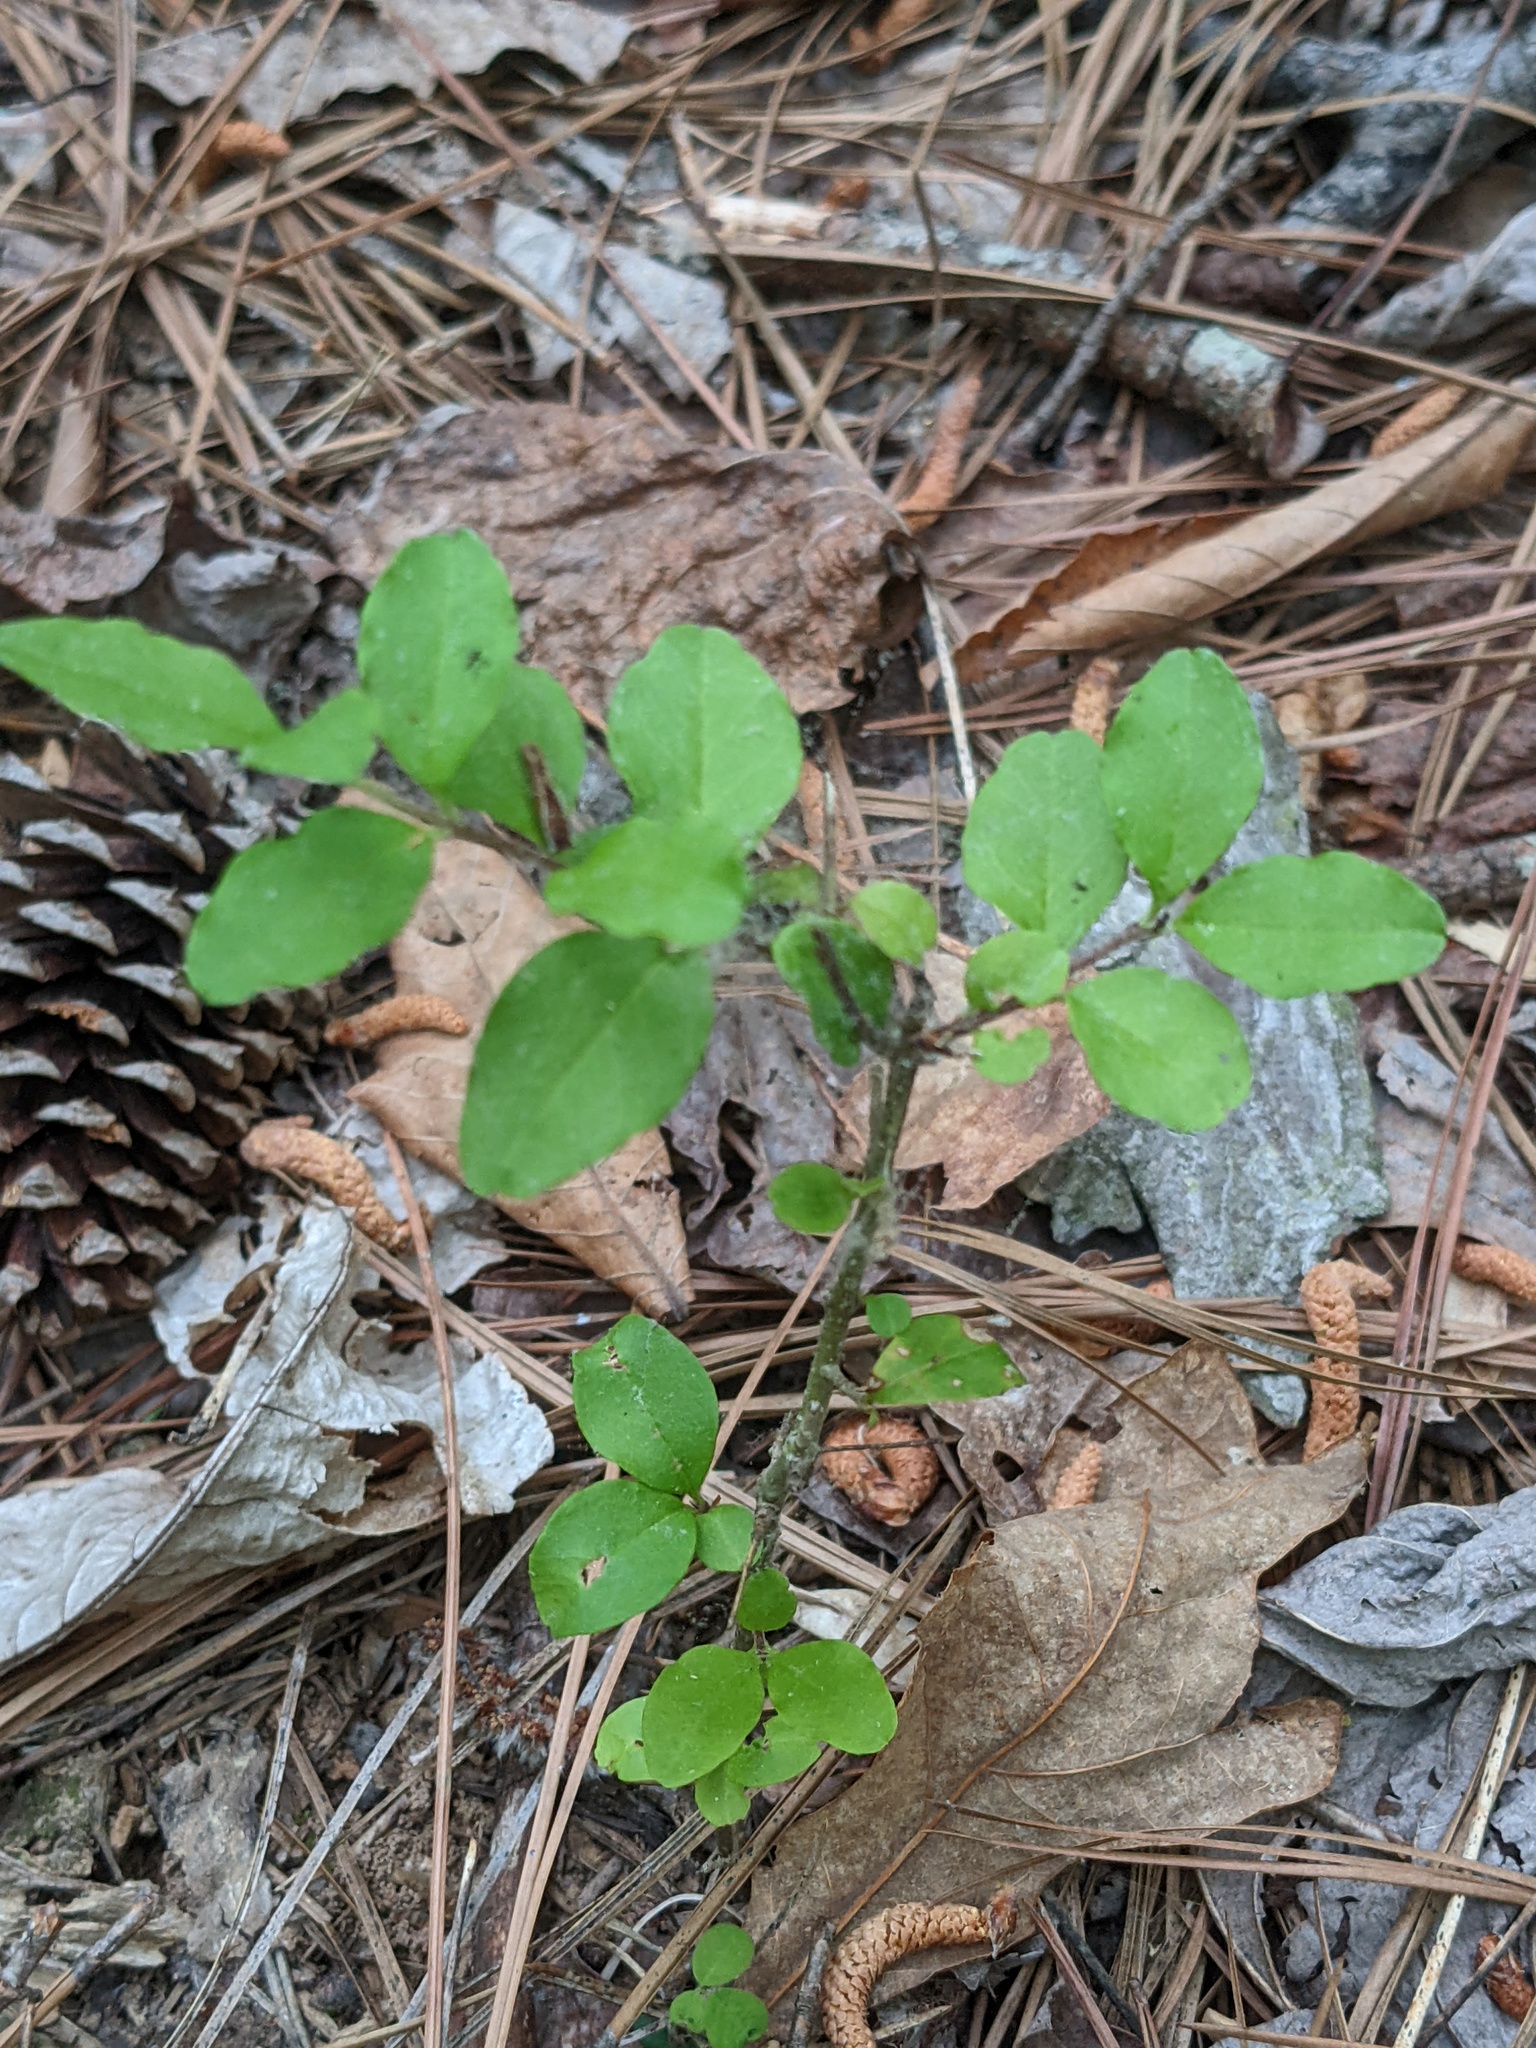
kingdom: Plantae
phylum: Tracheophyta
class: Magnoliopsida
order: Lamiales
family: Oleaceae
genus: Ligustrum
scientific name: Ligustrum sinense
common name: Chinese privet
